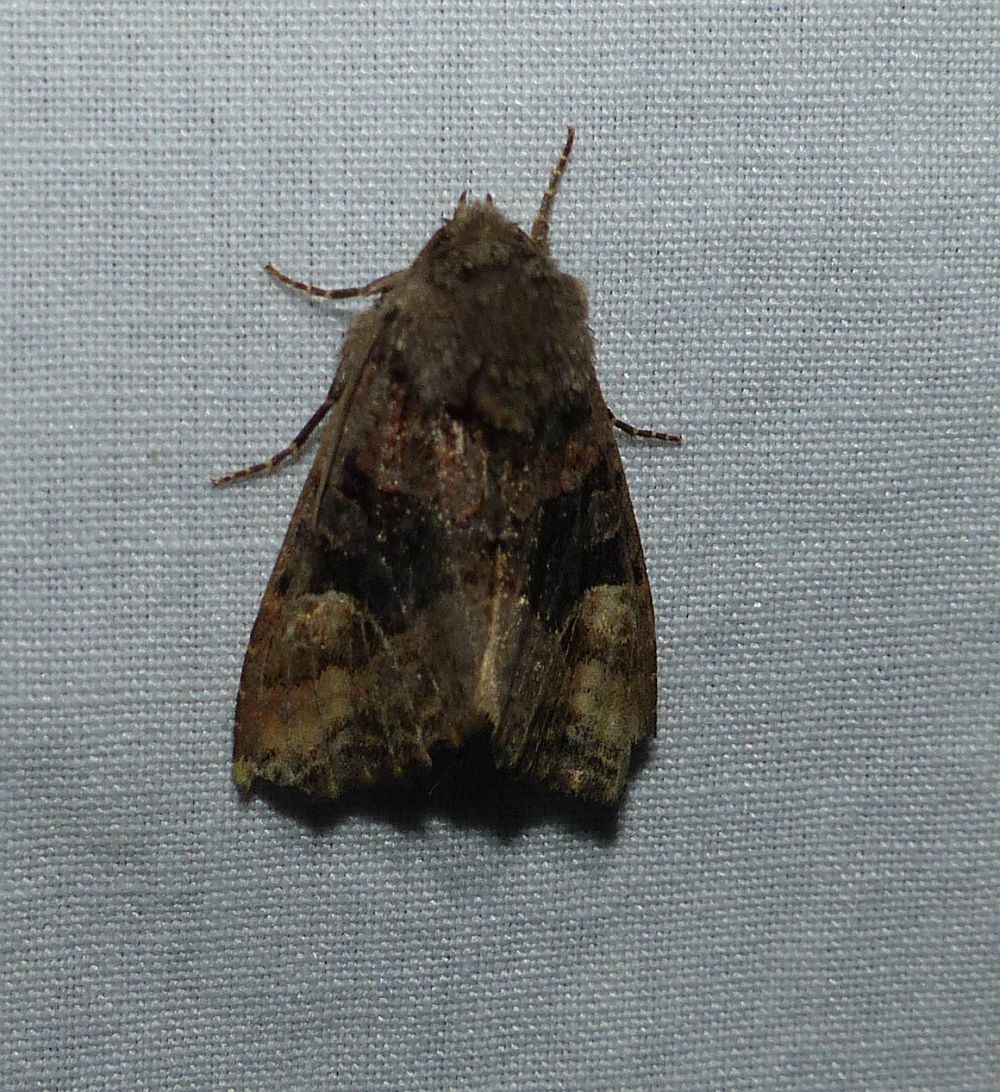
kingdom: Animalia
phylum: Arthropoda
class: Insecta
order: Lepidoptera
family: Noctuidae
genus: Euplexia
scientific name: Euplexia benesimilis
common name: American angle shades
